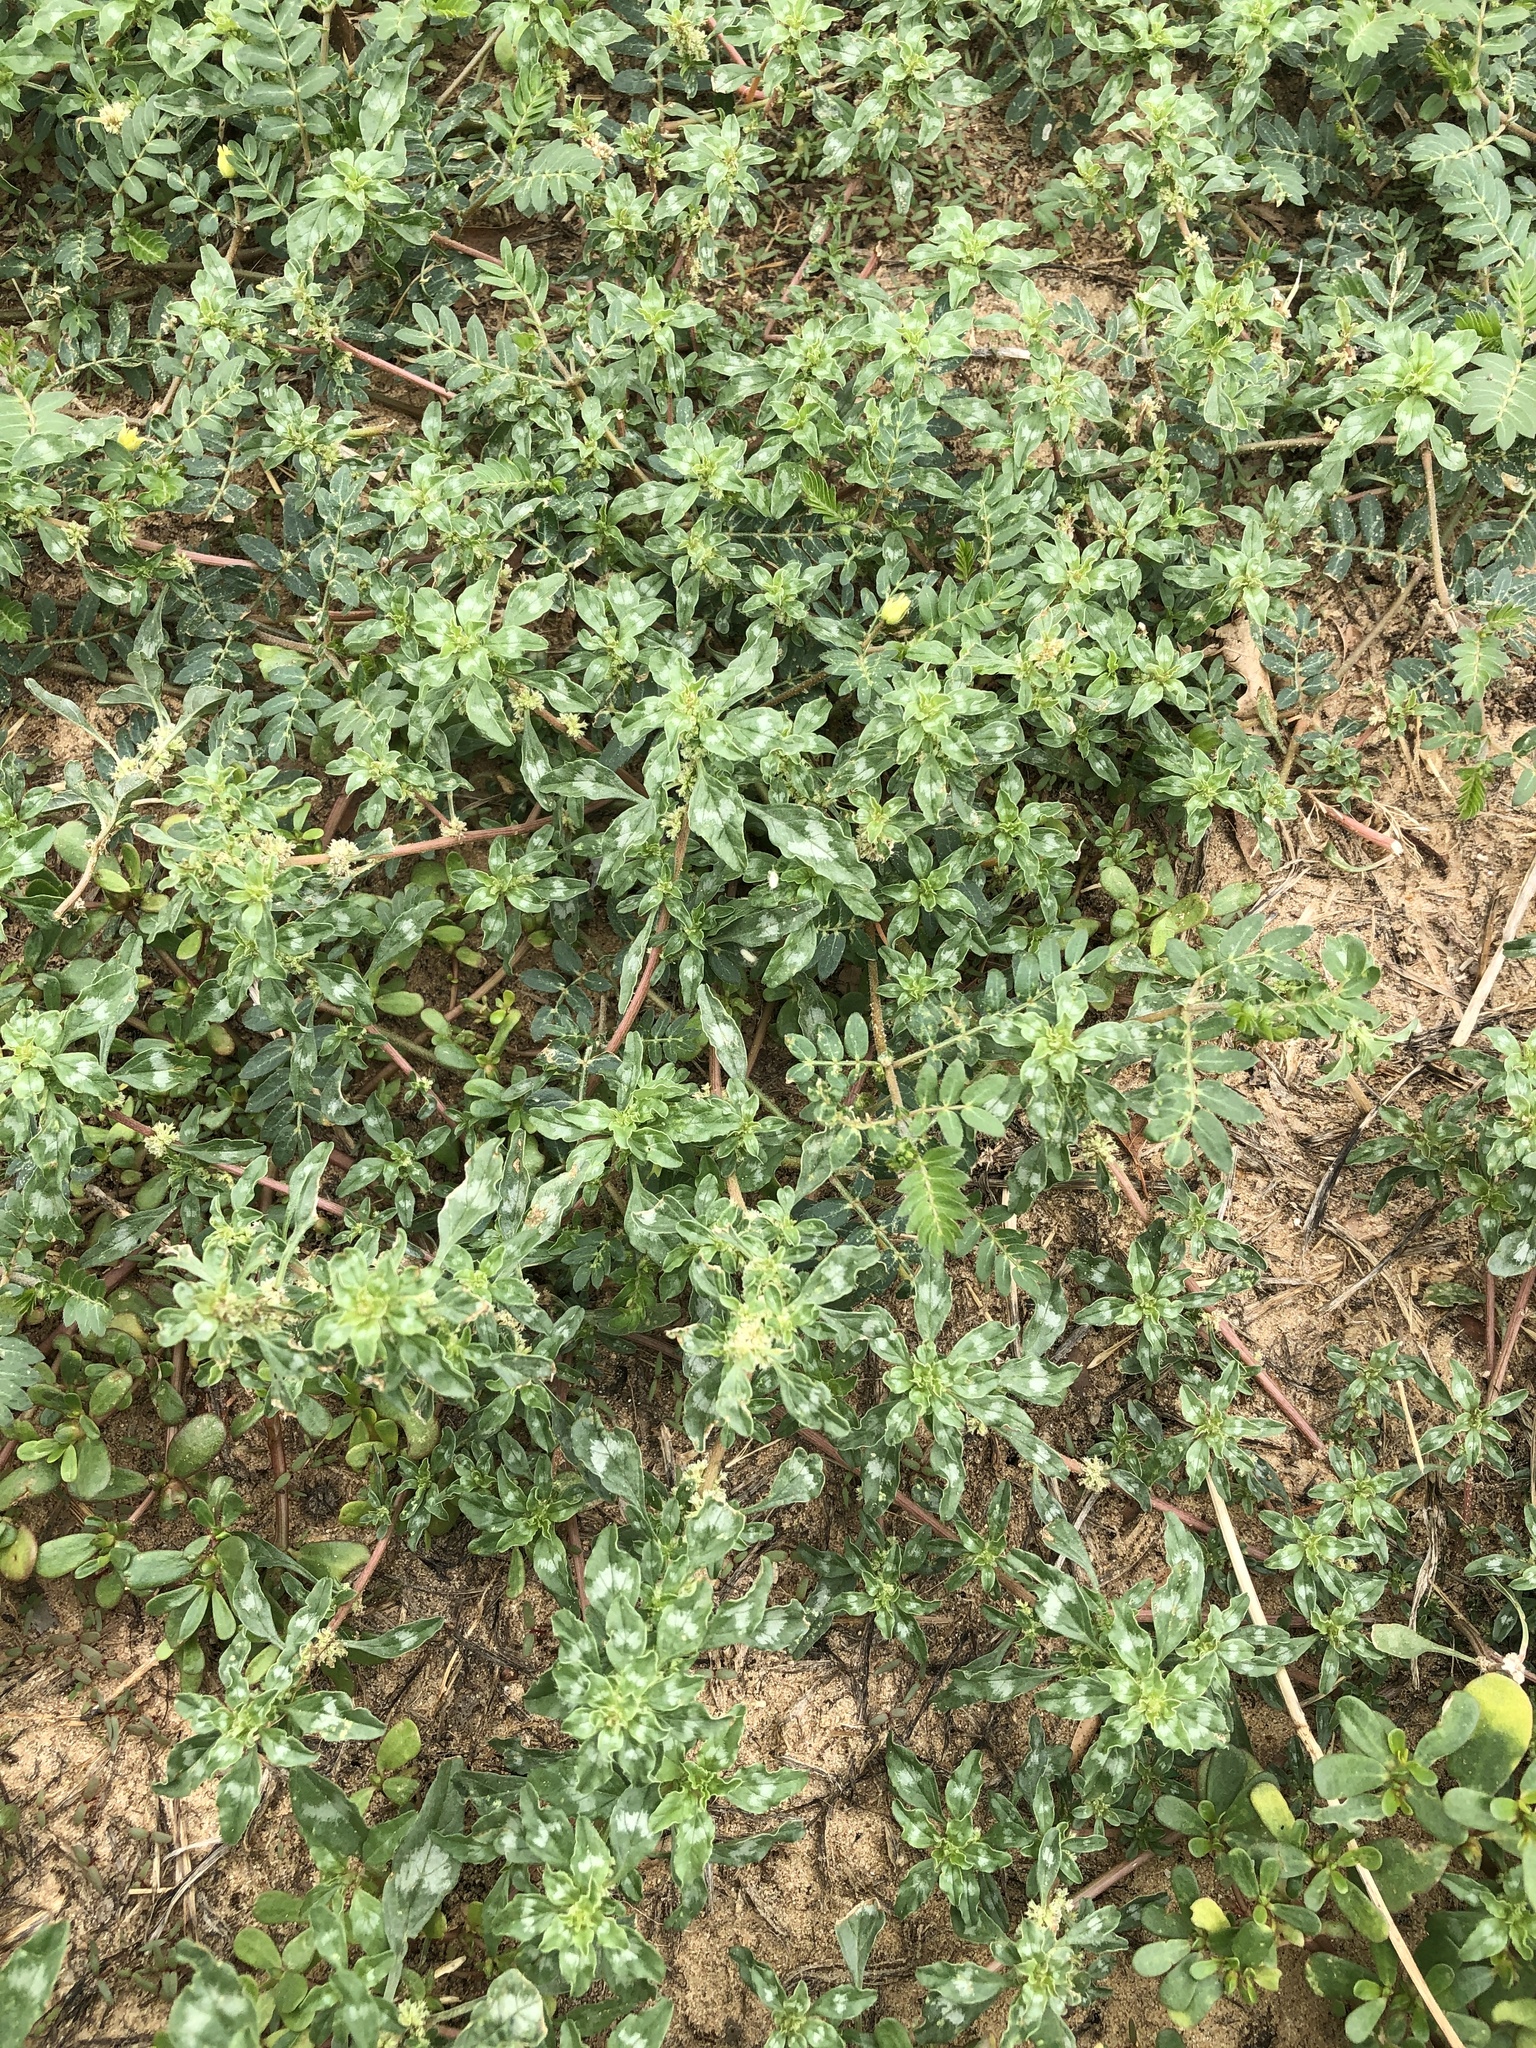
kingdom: Plantae
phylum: Tracheophyta
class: Magnoliopsida
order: Caryophyllales
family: Amaranthaceae
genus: Amaranthus
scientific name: Amaranthus blitoides
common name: Prostrate pigweed
